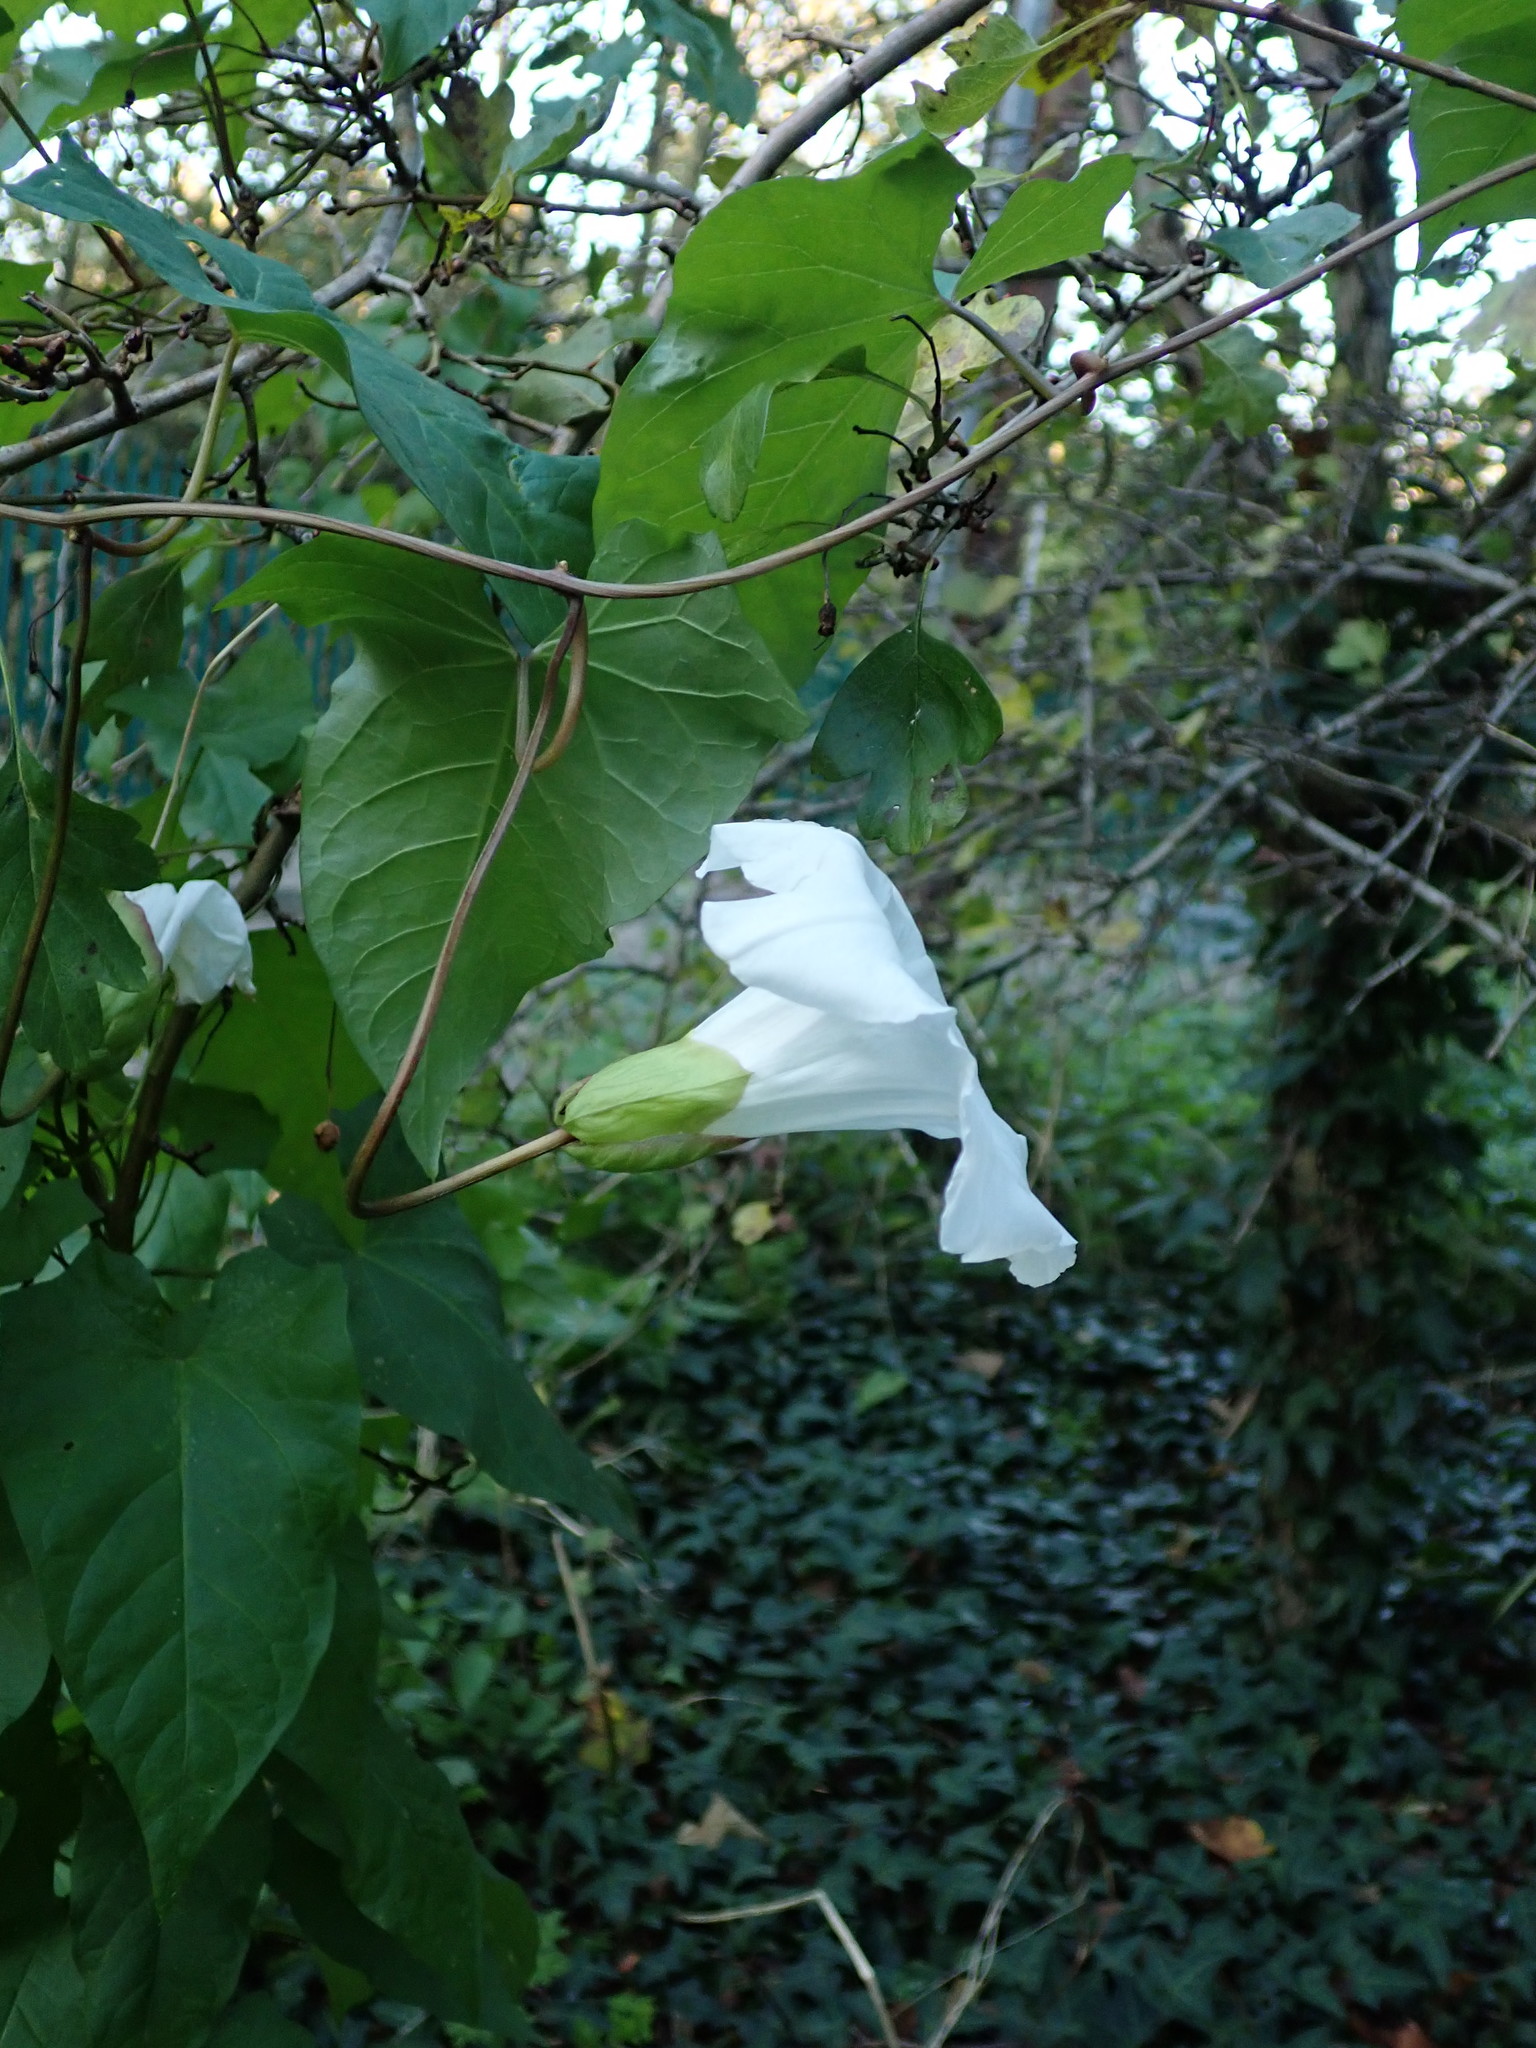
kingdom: Plantae
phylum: Tracheophyta
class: Magnoliopsida
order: Solanales
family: Convolvulaceae
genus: Calystegia
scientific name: Calystegia silvatica
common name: Large bindweed
